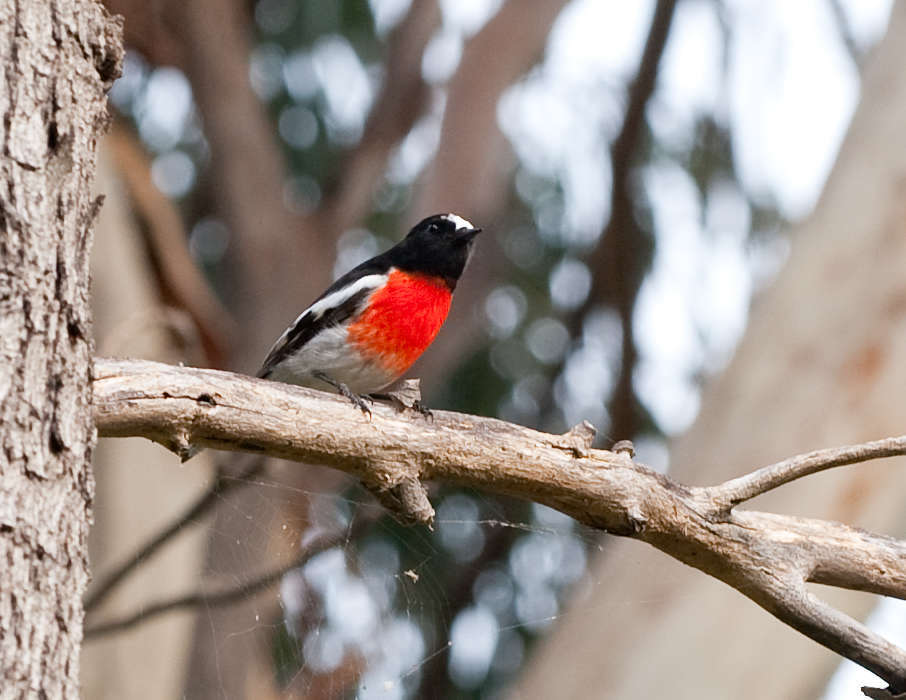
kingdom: Animalia
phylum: Chordata
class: Aves
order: Passeriformes
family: Petroicidae
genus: Petroica
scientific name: Petroica boodang
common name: Scarlet robin
